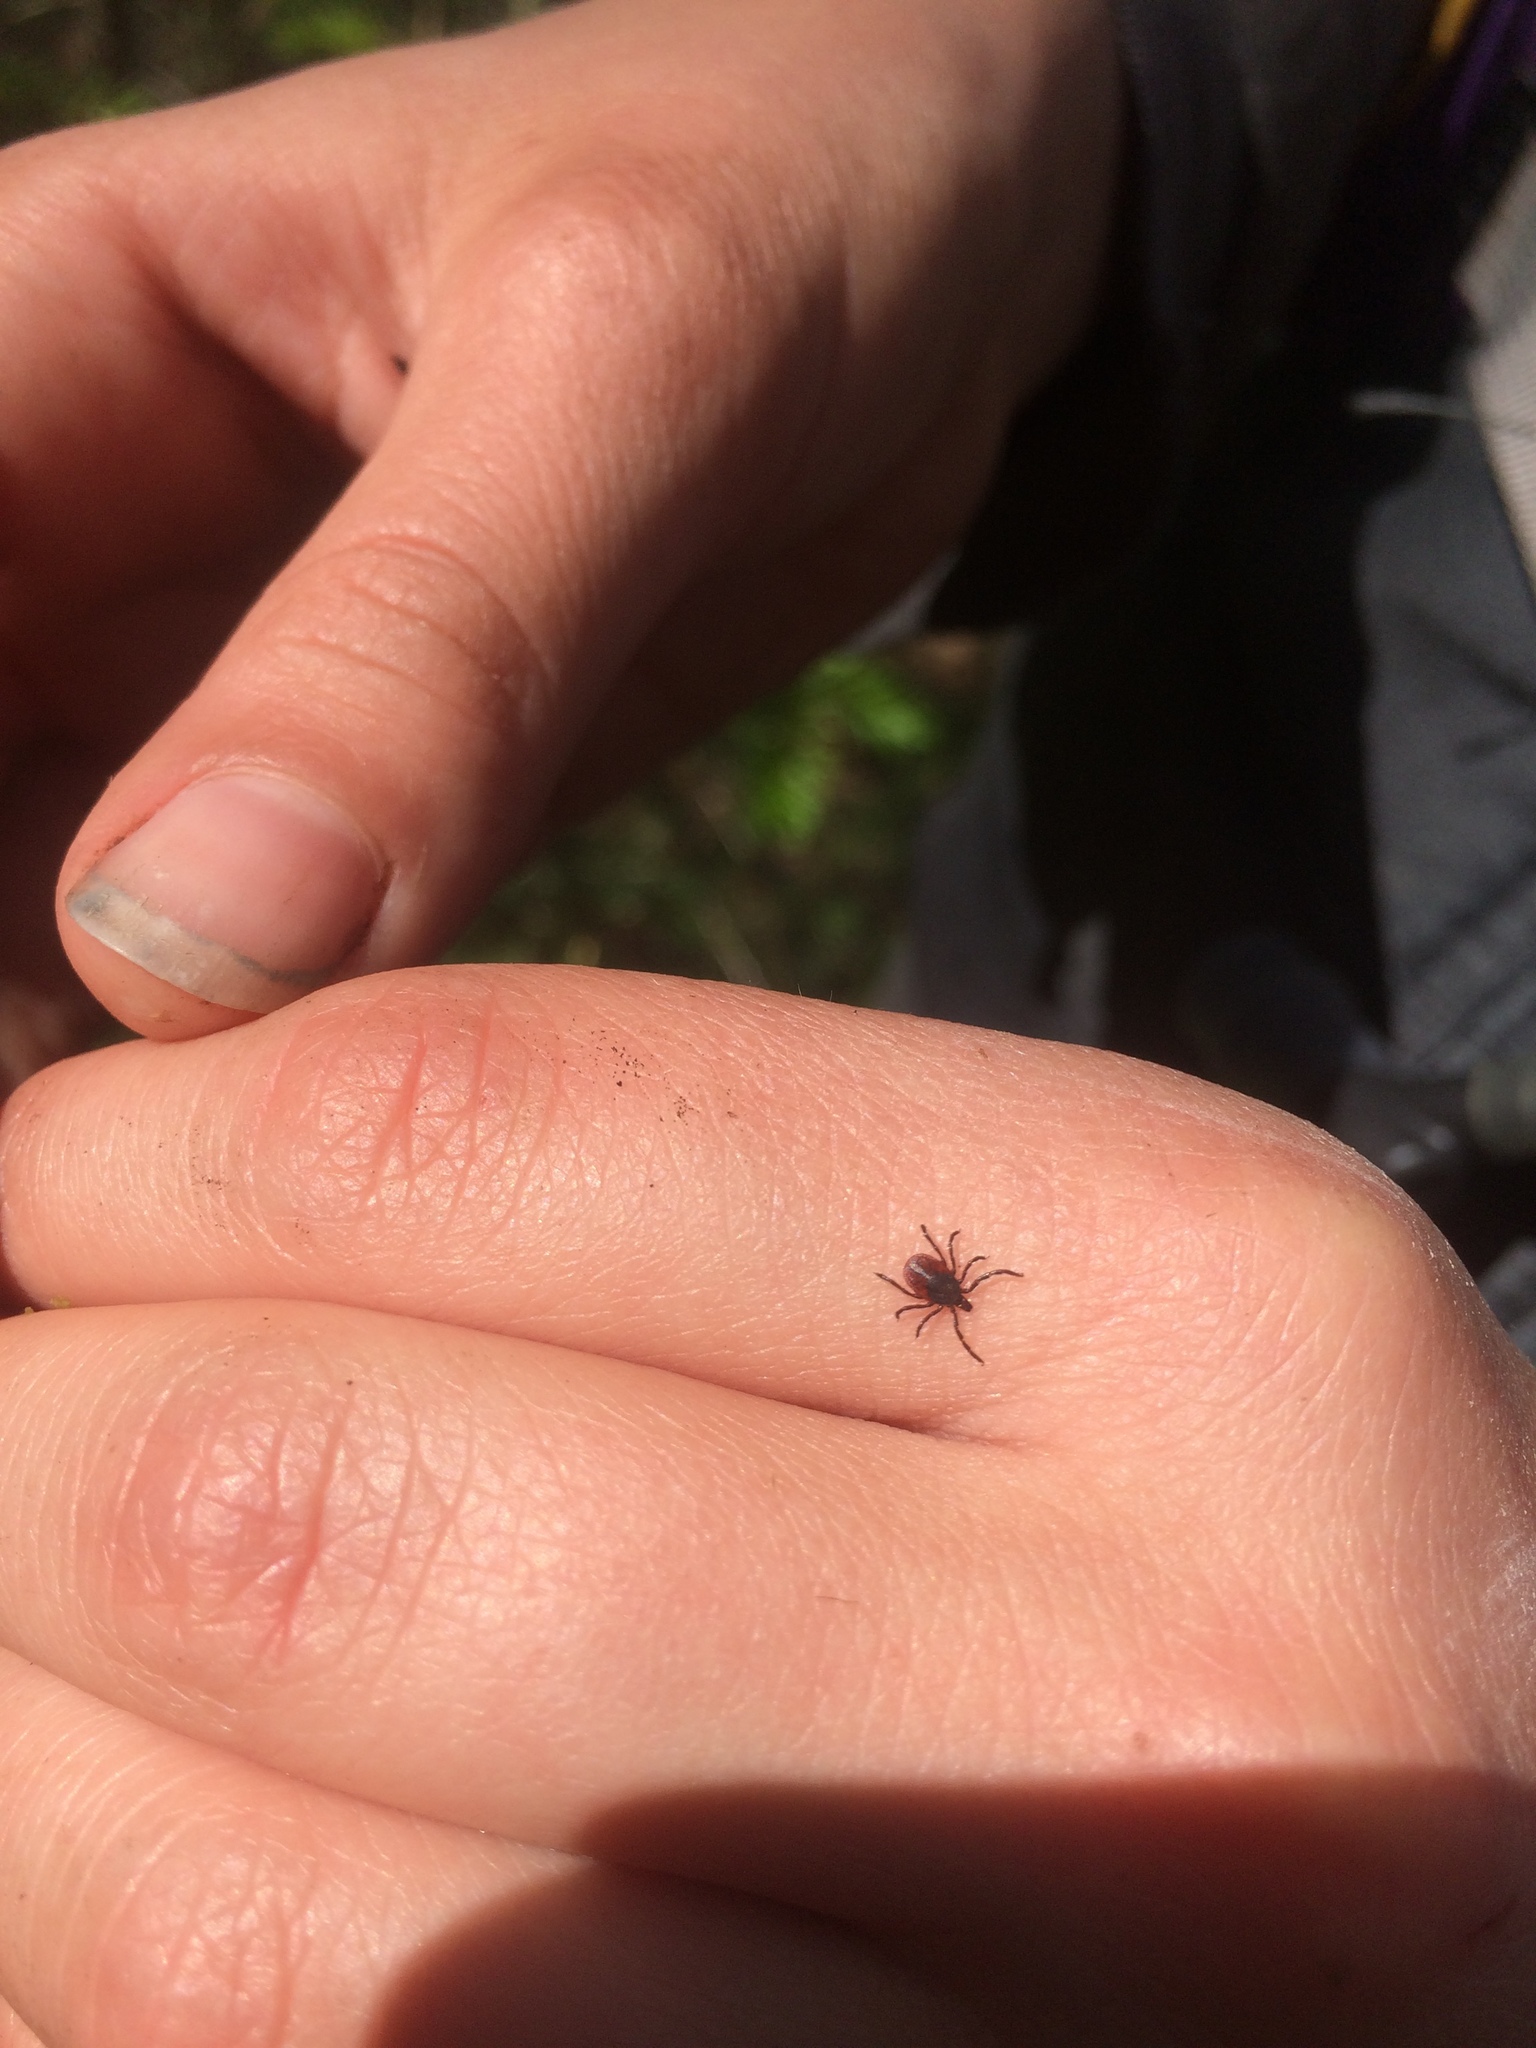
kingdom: Animalia
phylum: Arthropoda
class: Arachnida
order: Ixodida
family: Ixodidae
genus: Ixodes
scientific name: Ixodes pacificus
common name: California black-legged tick
